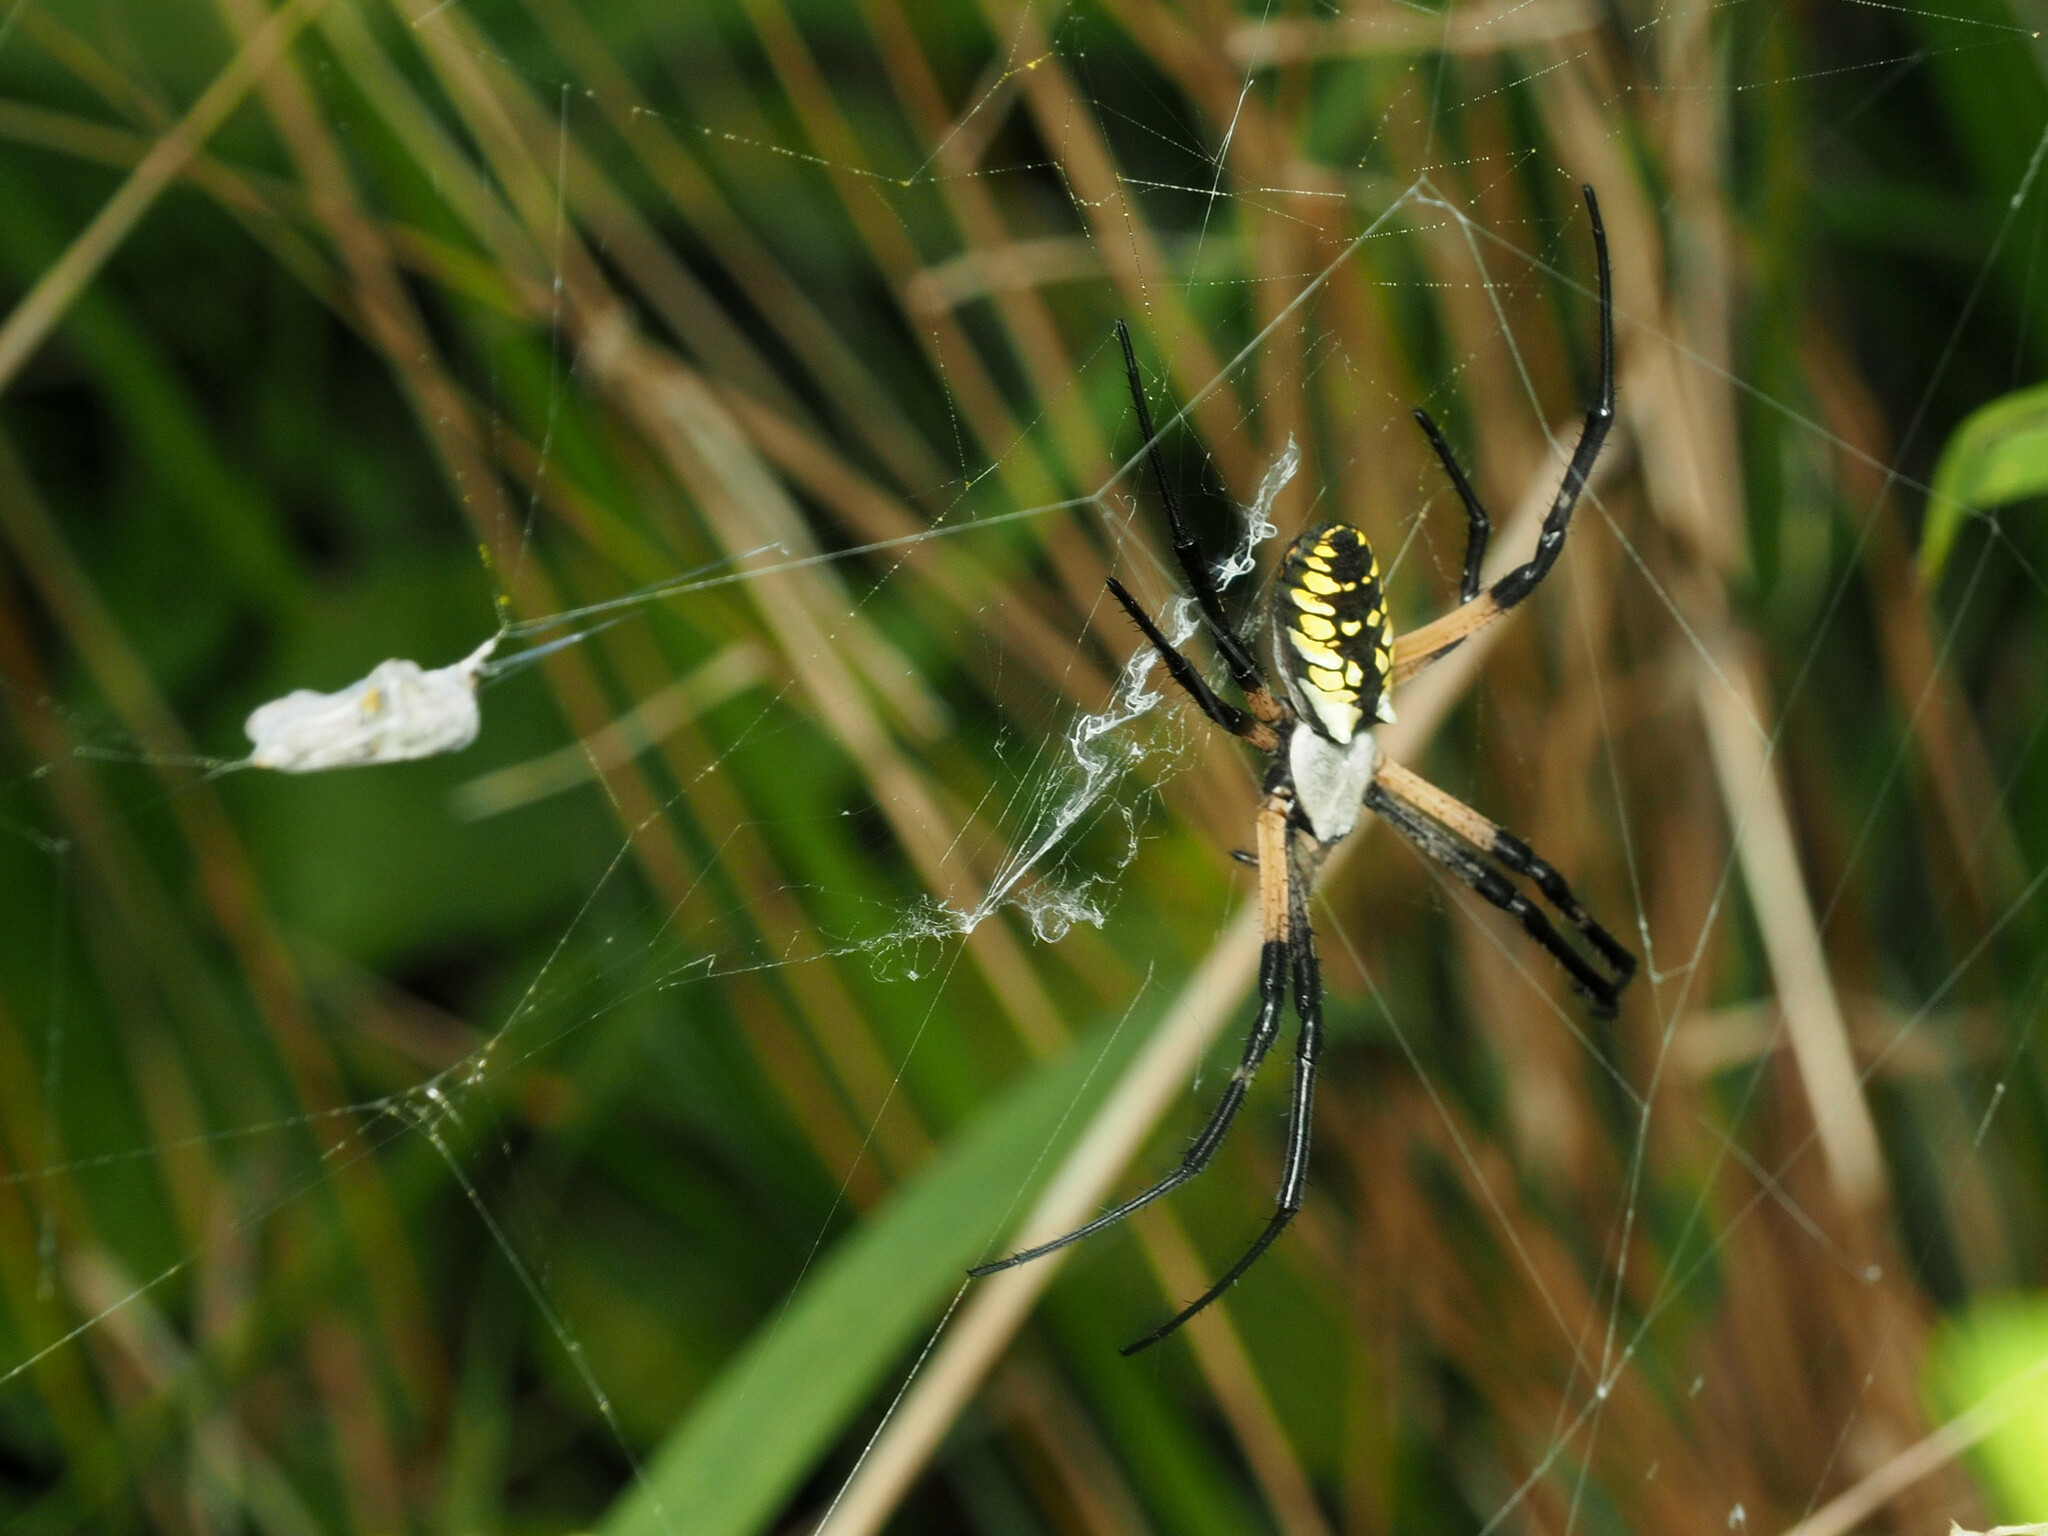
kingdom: Animalia
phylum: Arthropoda
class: Arachnida
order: Araneae
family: Araneidae
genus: Argiope
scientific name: Argiope aurantia
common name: Orb weavers
